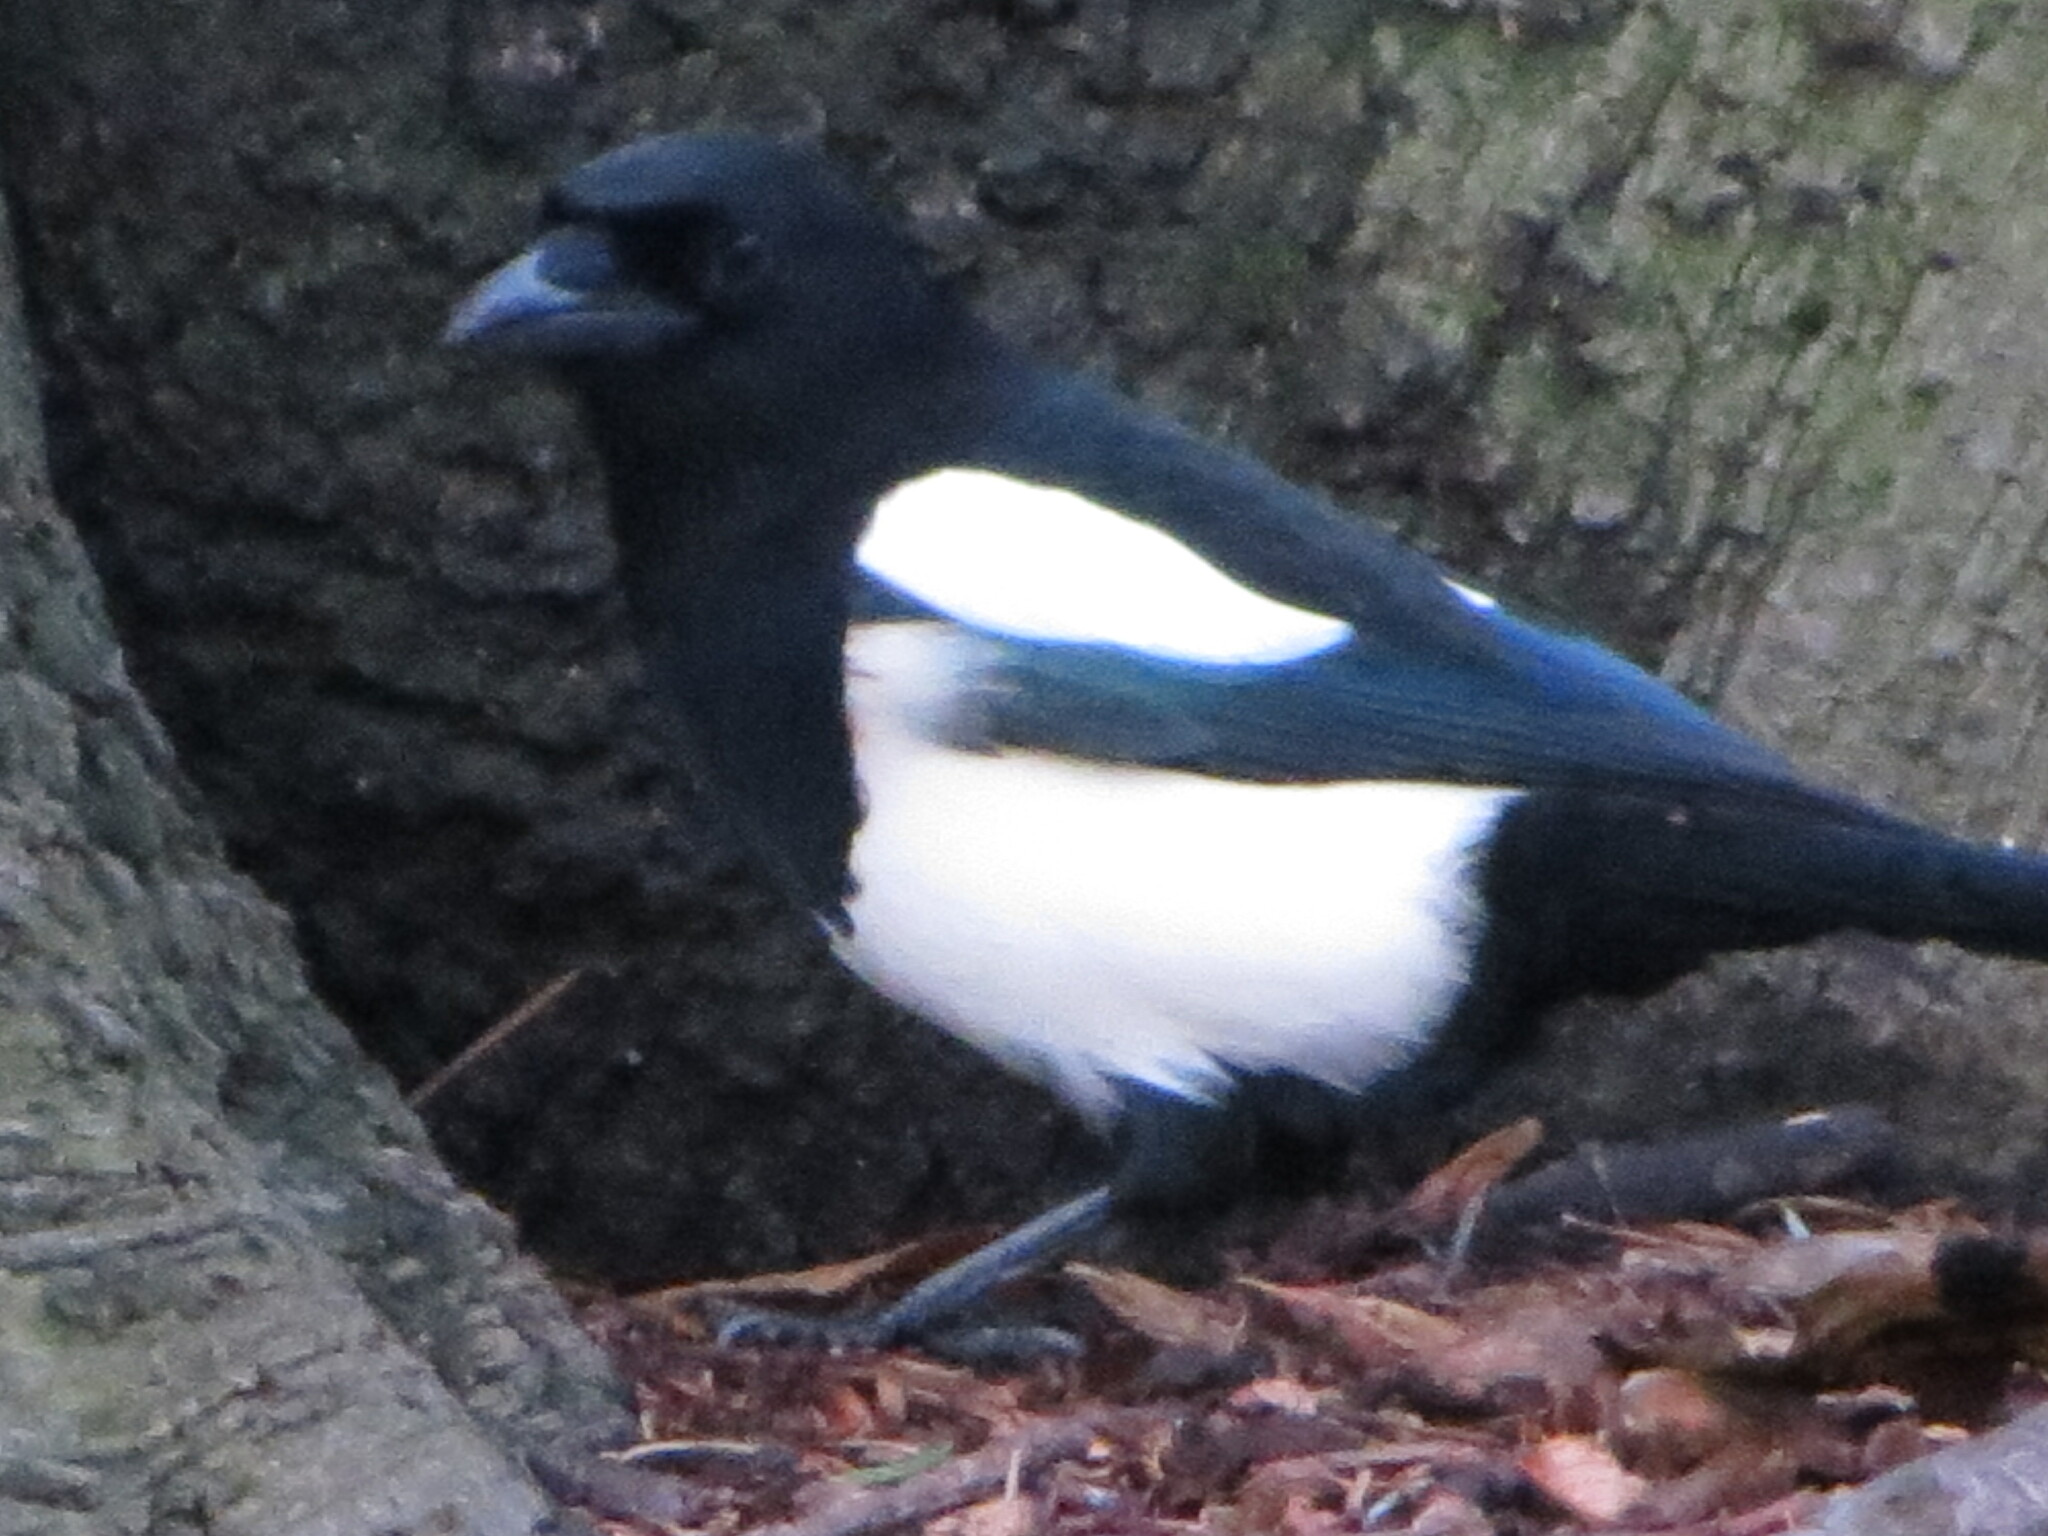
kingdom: Animalia
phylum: Chordata
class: Aves
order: Passeriformes
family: Corvidae
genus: Pica
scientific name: Pica pica
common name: Eurasian magpie
